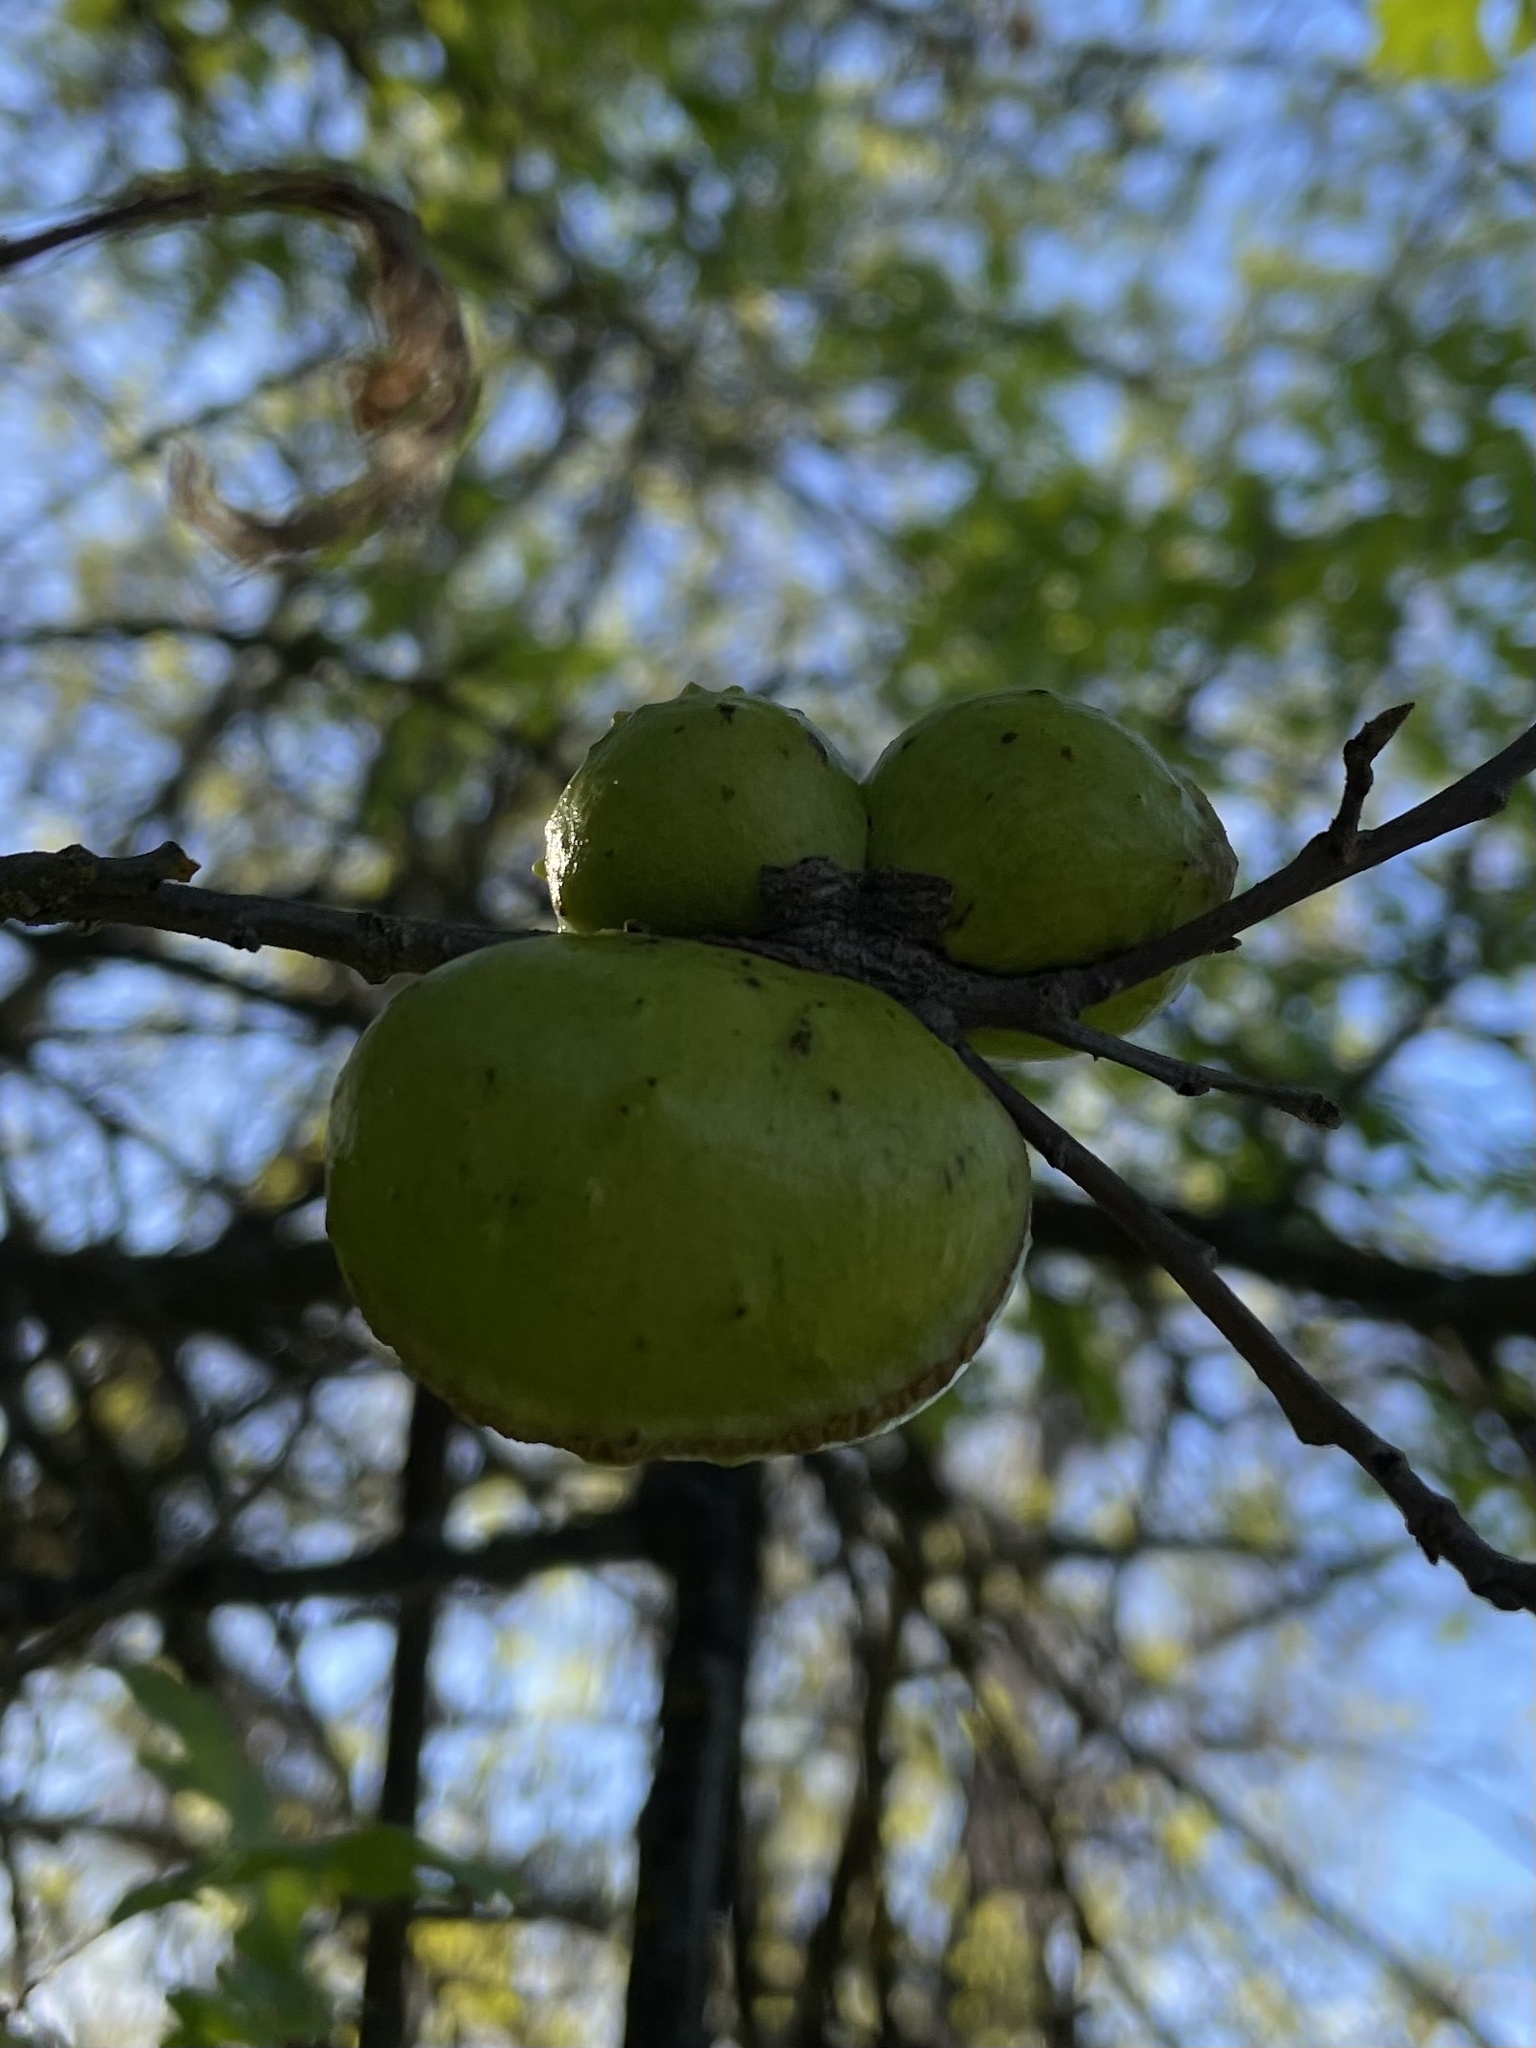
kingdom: Animalia
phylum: Arthropoda
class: Insecta
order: Hymenoptera
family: Cynipidae
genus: Andricus
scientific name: Andricus quercuscalifornicus
